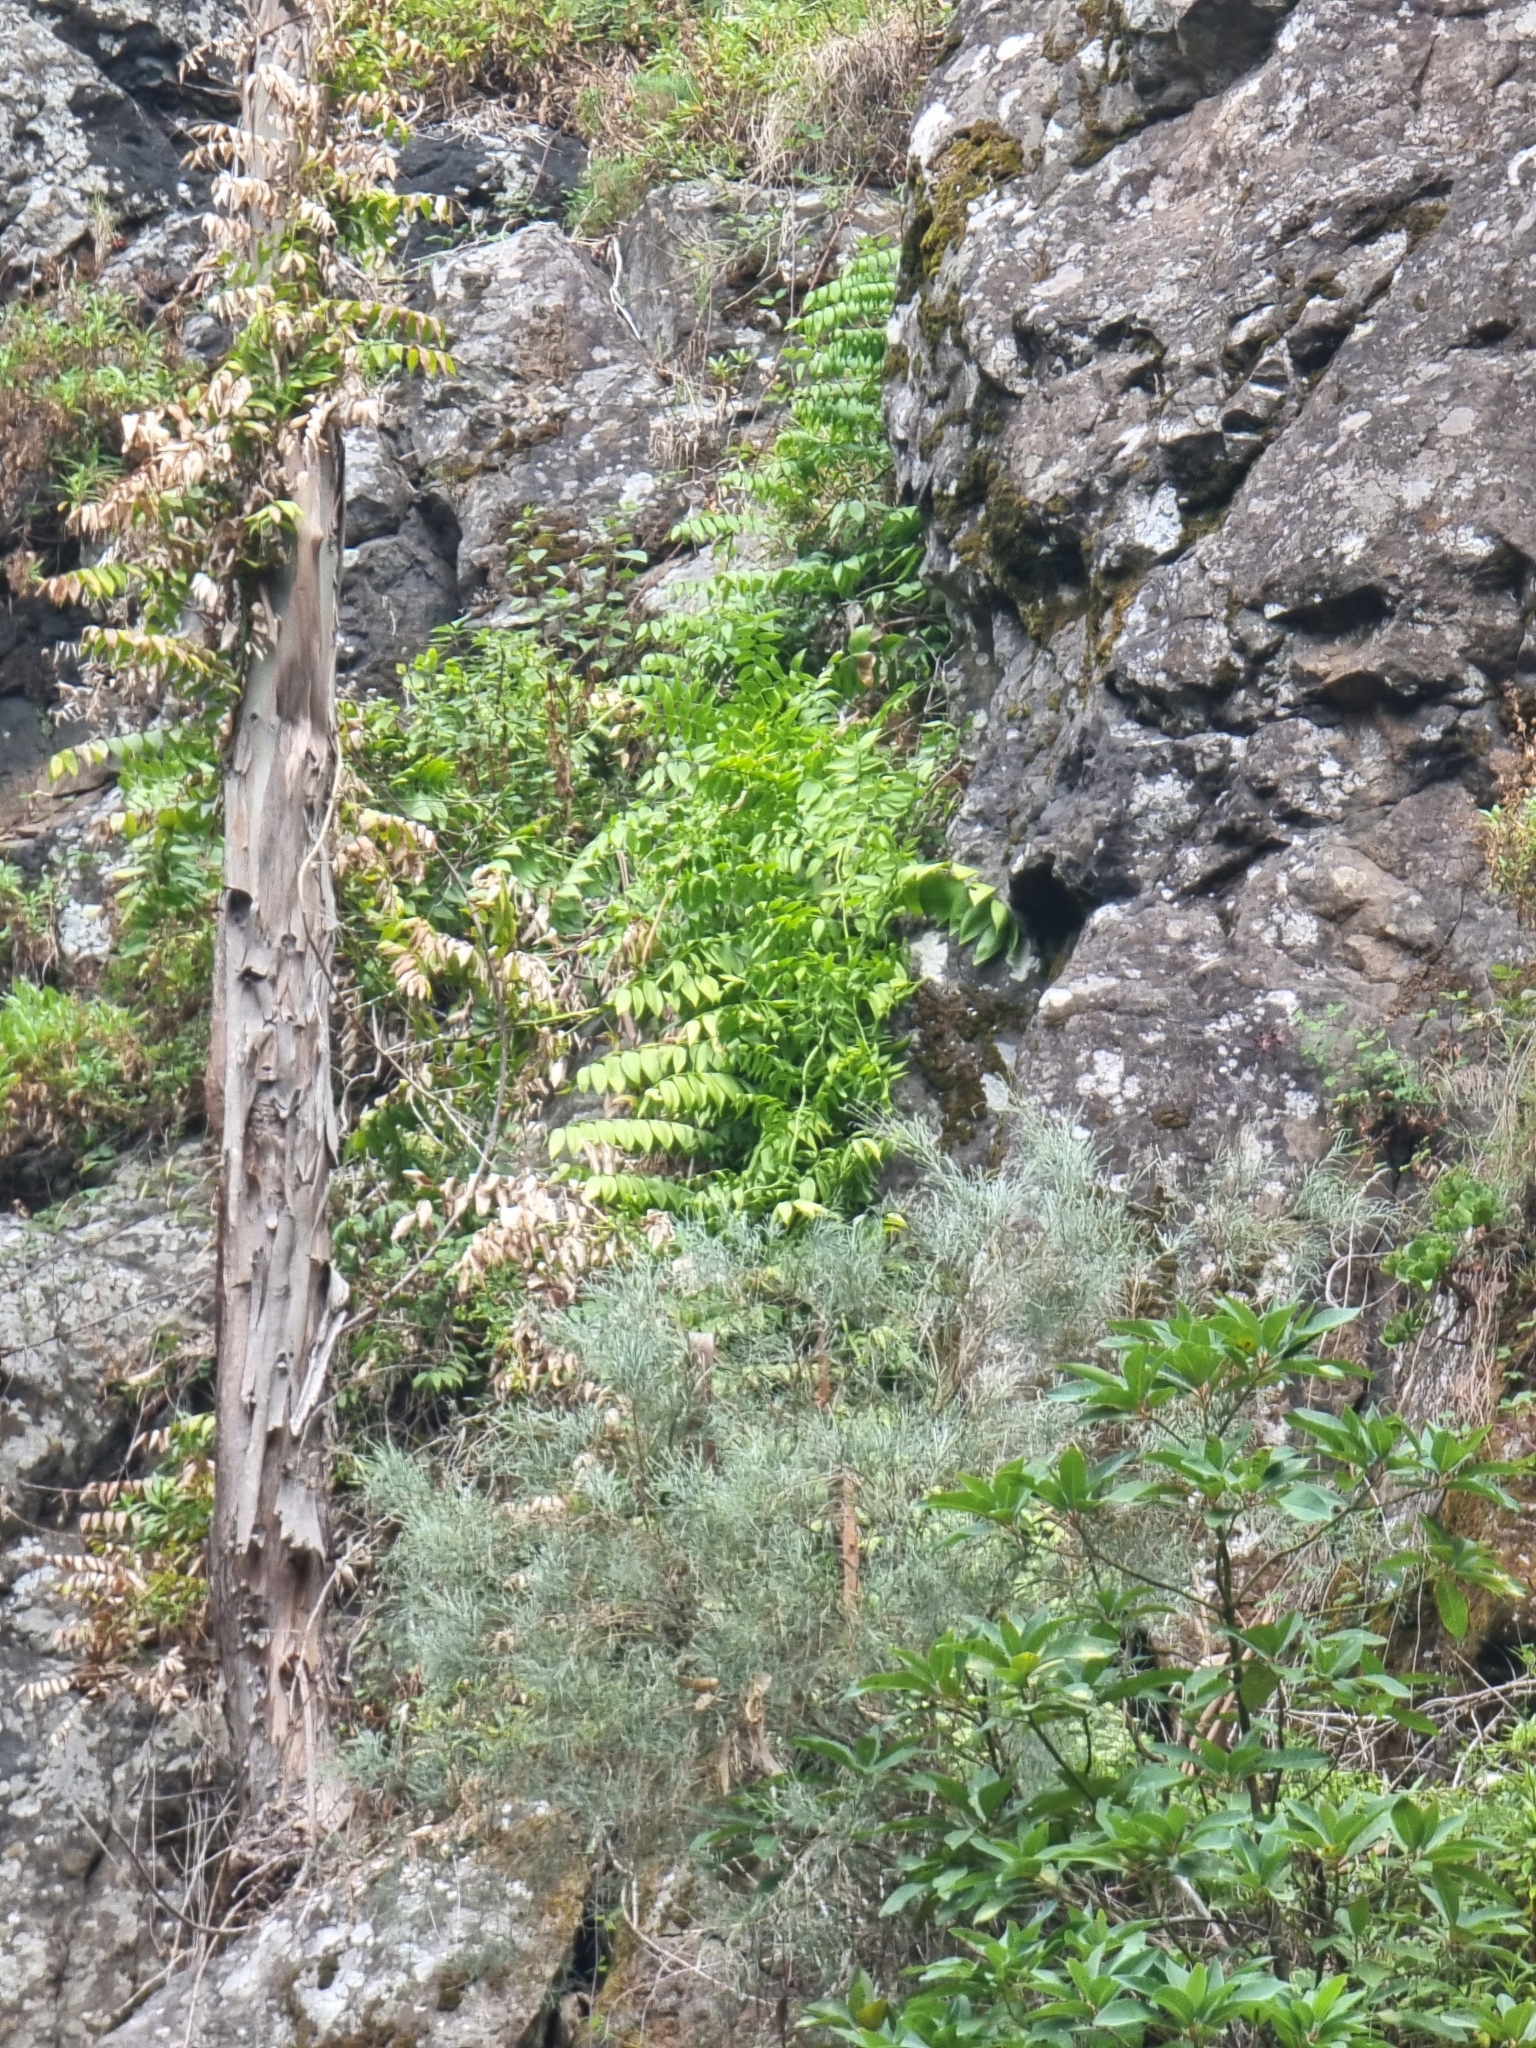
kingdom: Plantae
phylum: Tracheophyta
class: Liliopsida
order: Asparagales
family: Asparagaceae
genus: Semele
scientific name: Semele androgyna
